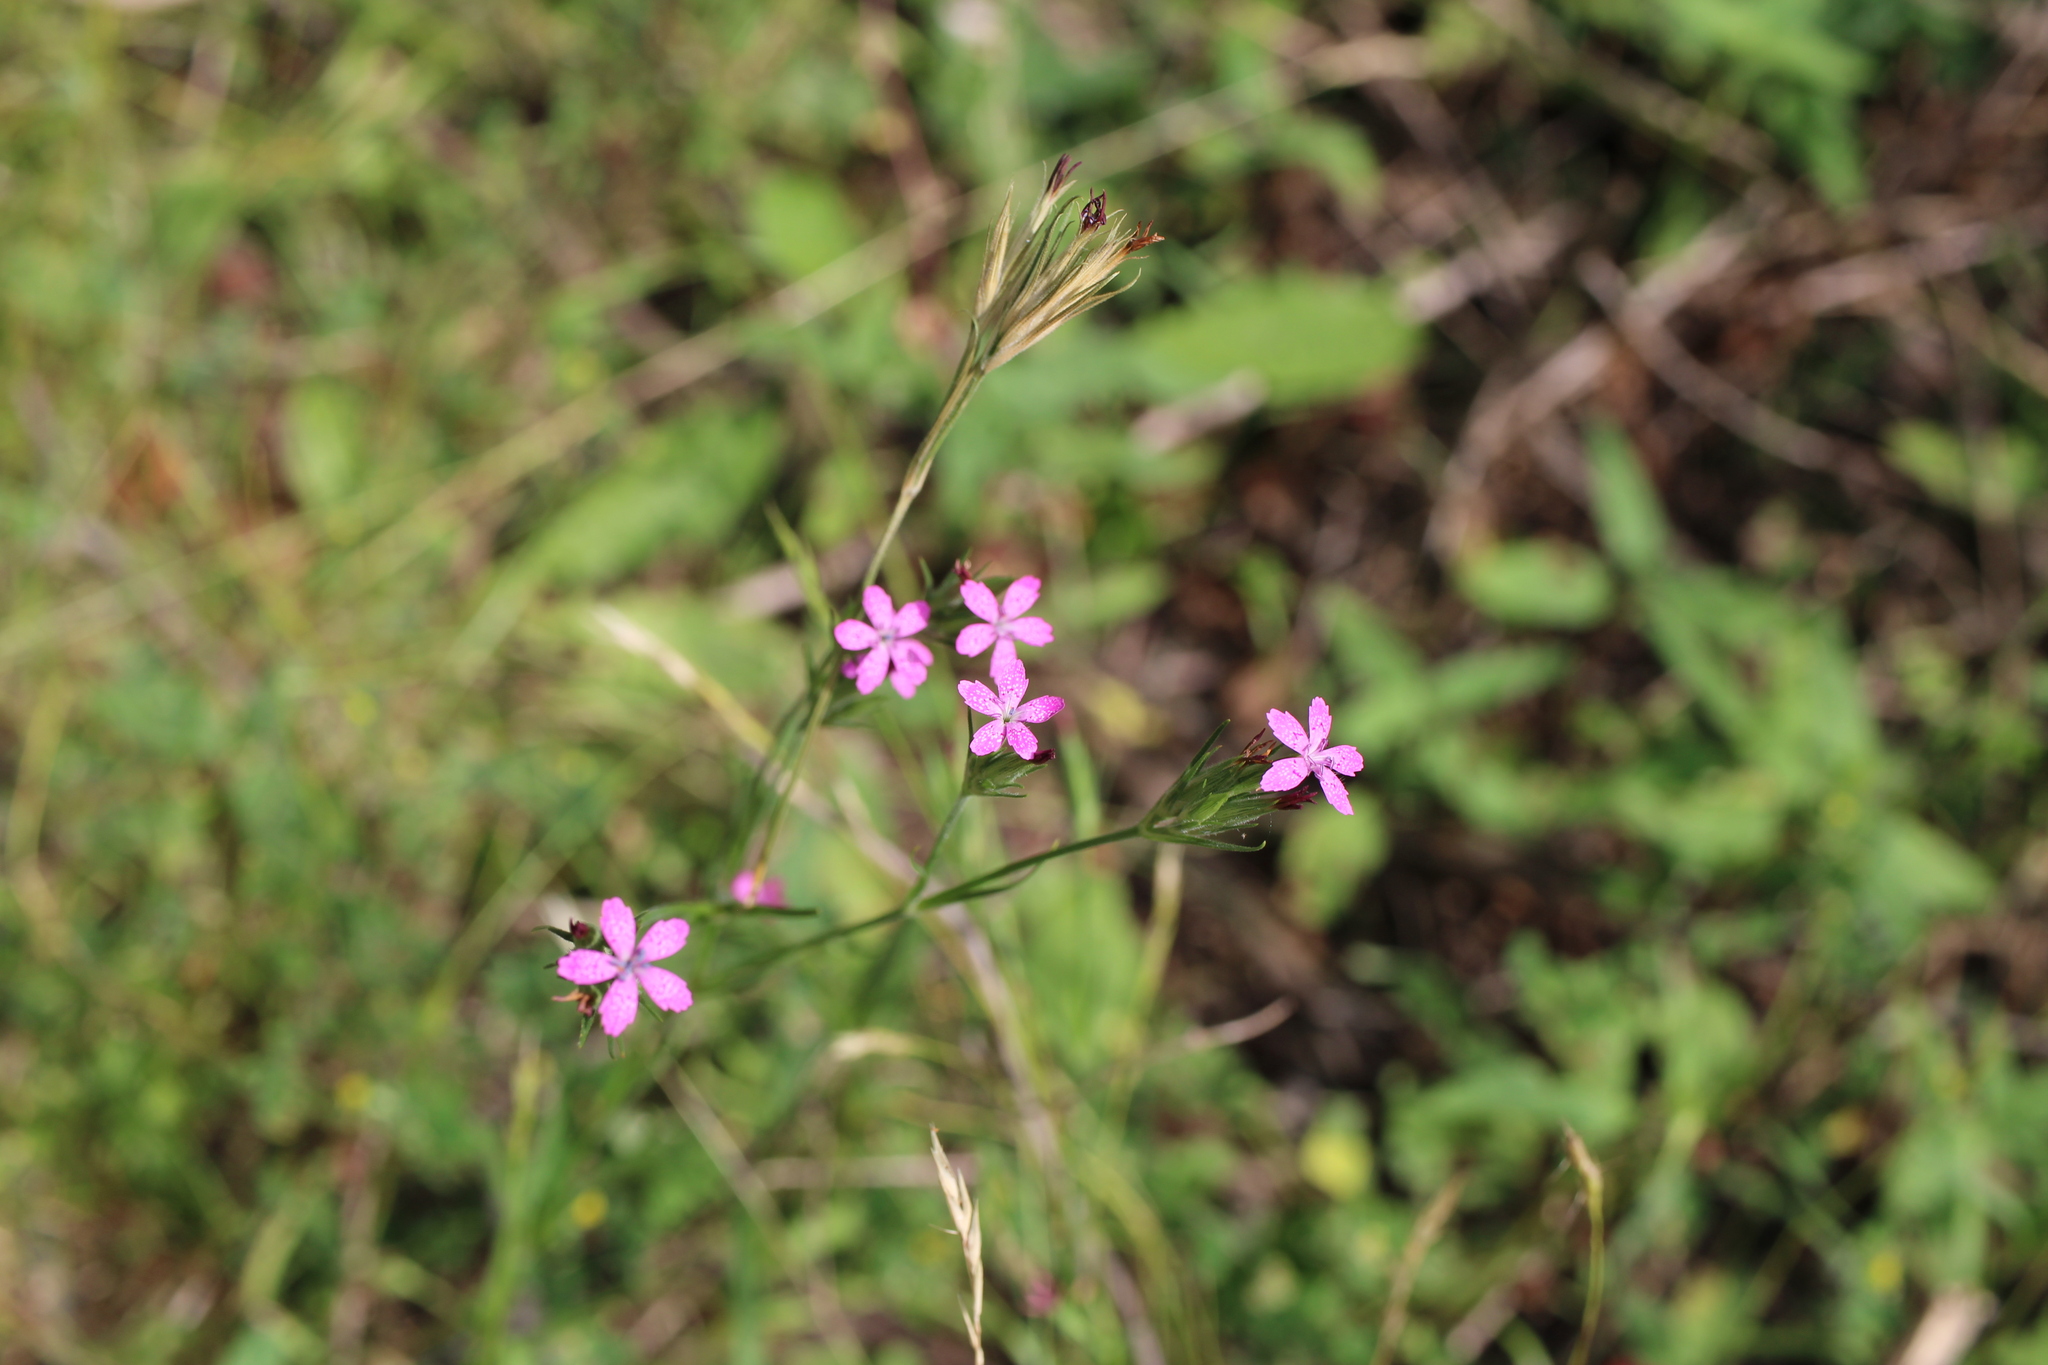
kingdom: Plantae
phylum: Tracheophyta
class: Magnoliopsida
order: Caryophyllales
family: Caryophyllaceae
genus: Dianthus
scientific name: Dianthus armeria
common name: Deptford pink
